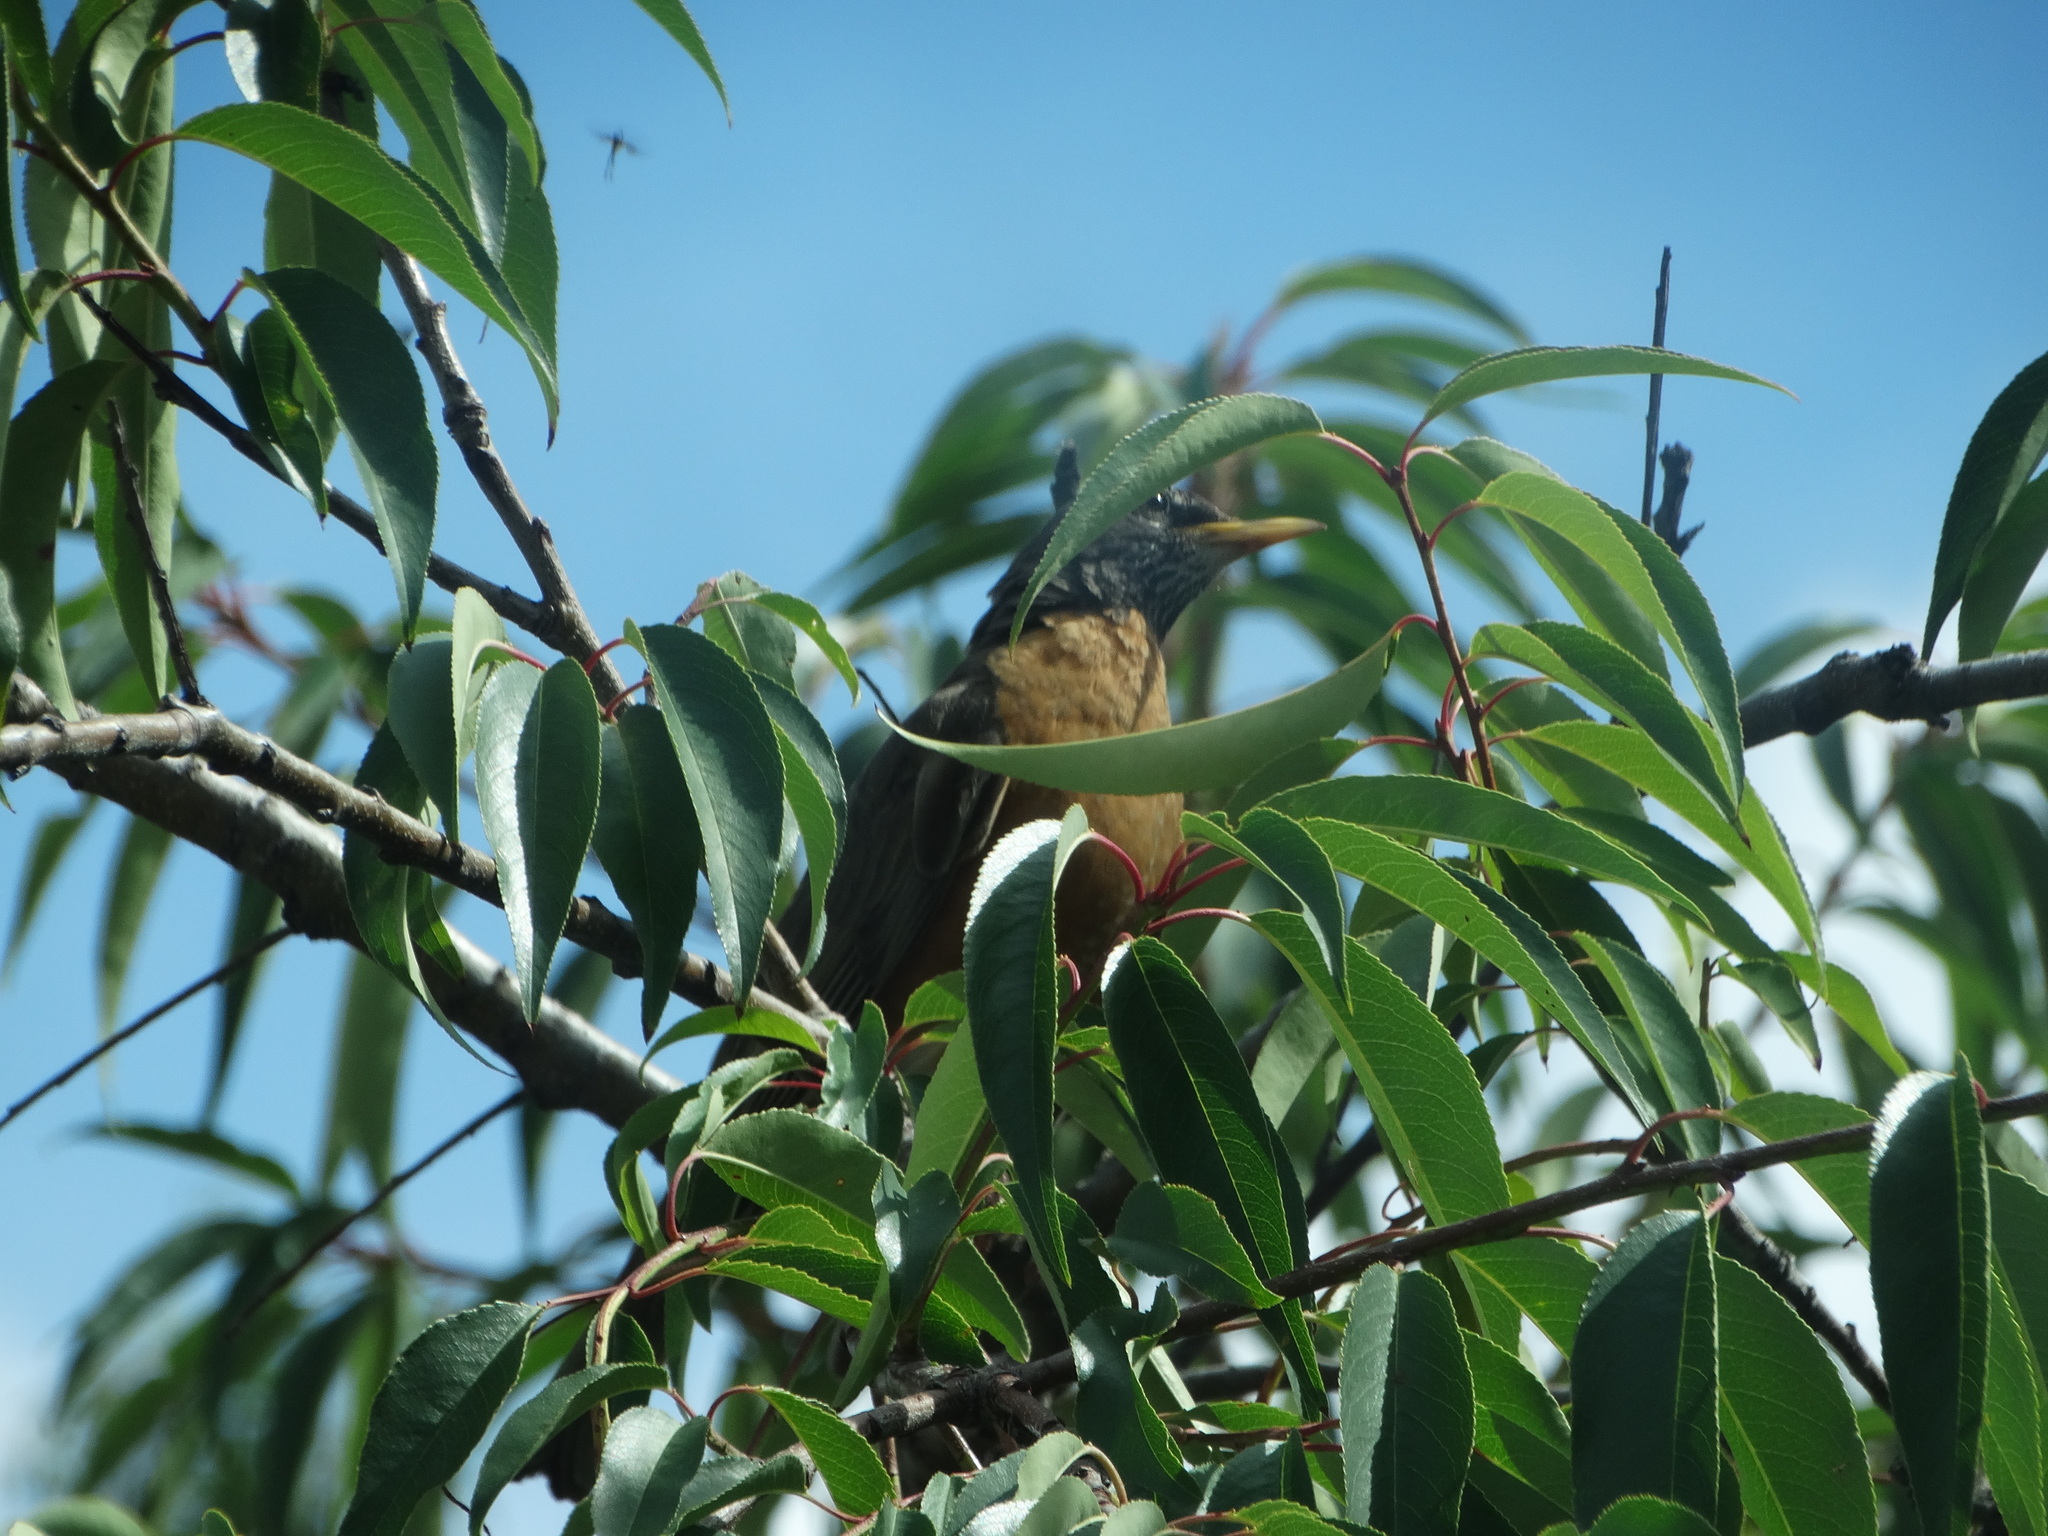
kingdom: Animalia
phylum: Chordata
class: Aves
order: Passeriformes
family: Turdidae
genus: Turdus
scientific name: Turdus migratorius
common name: American robin
